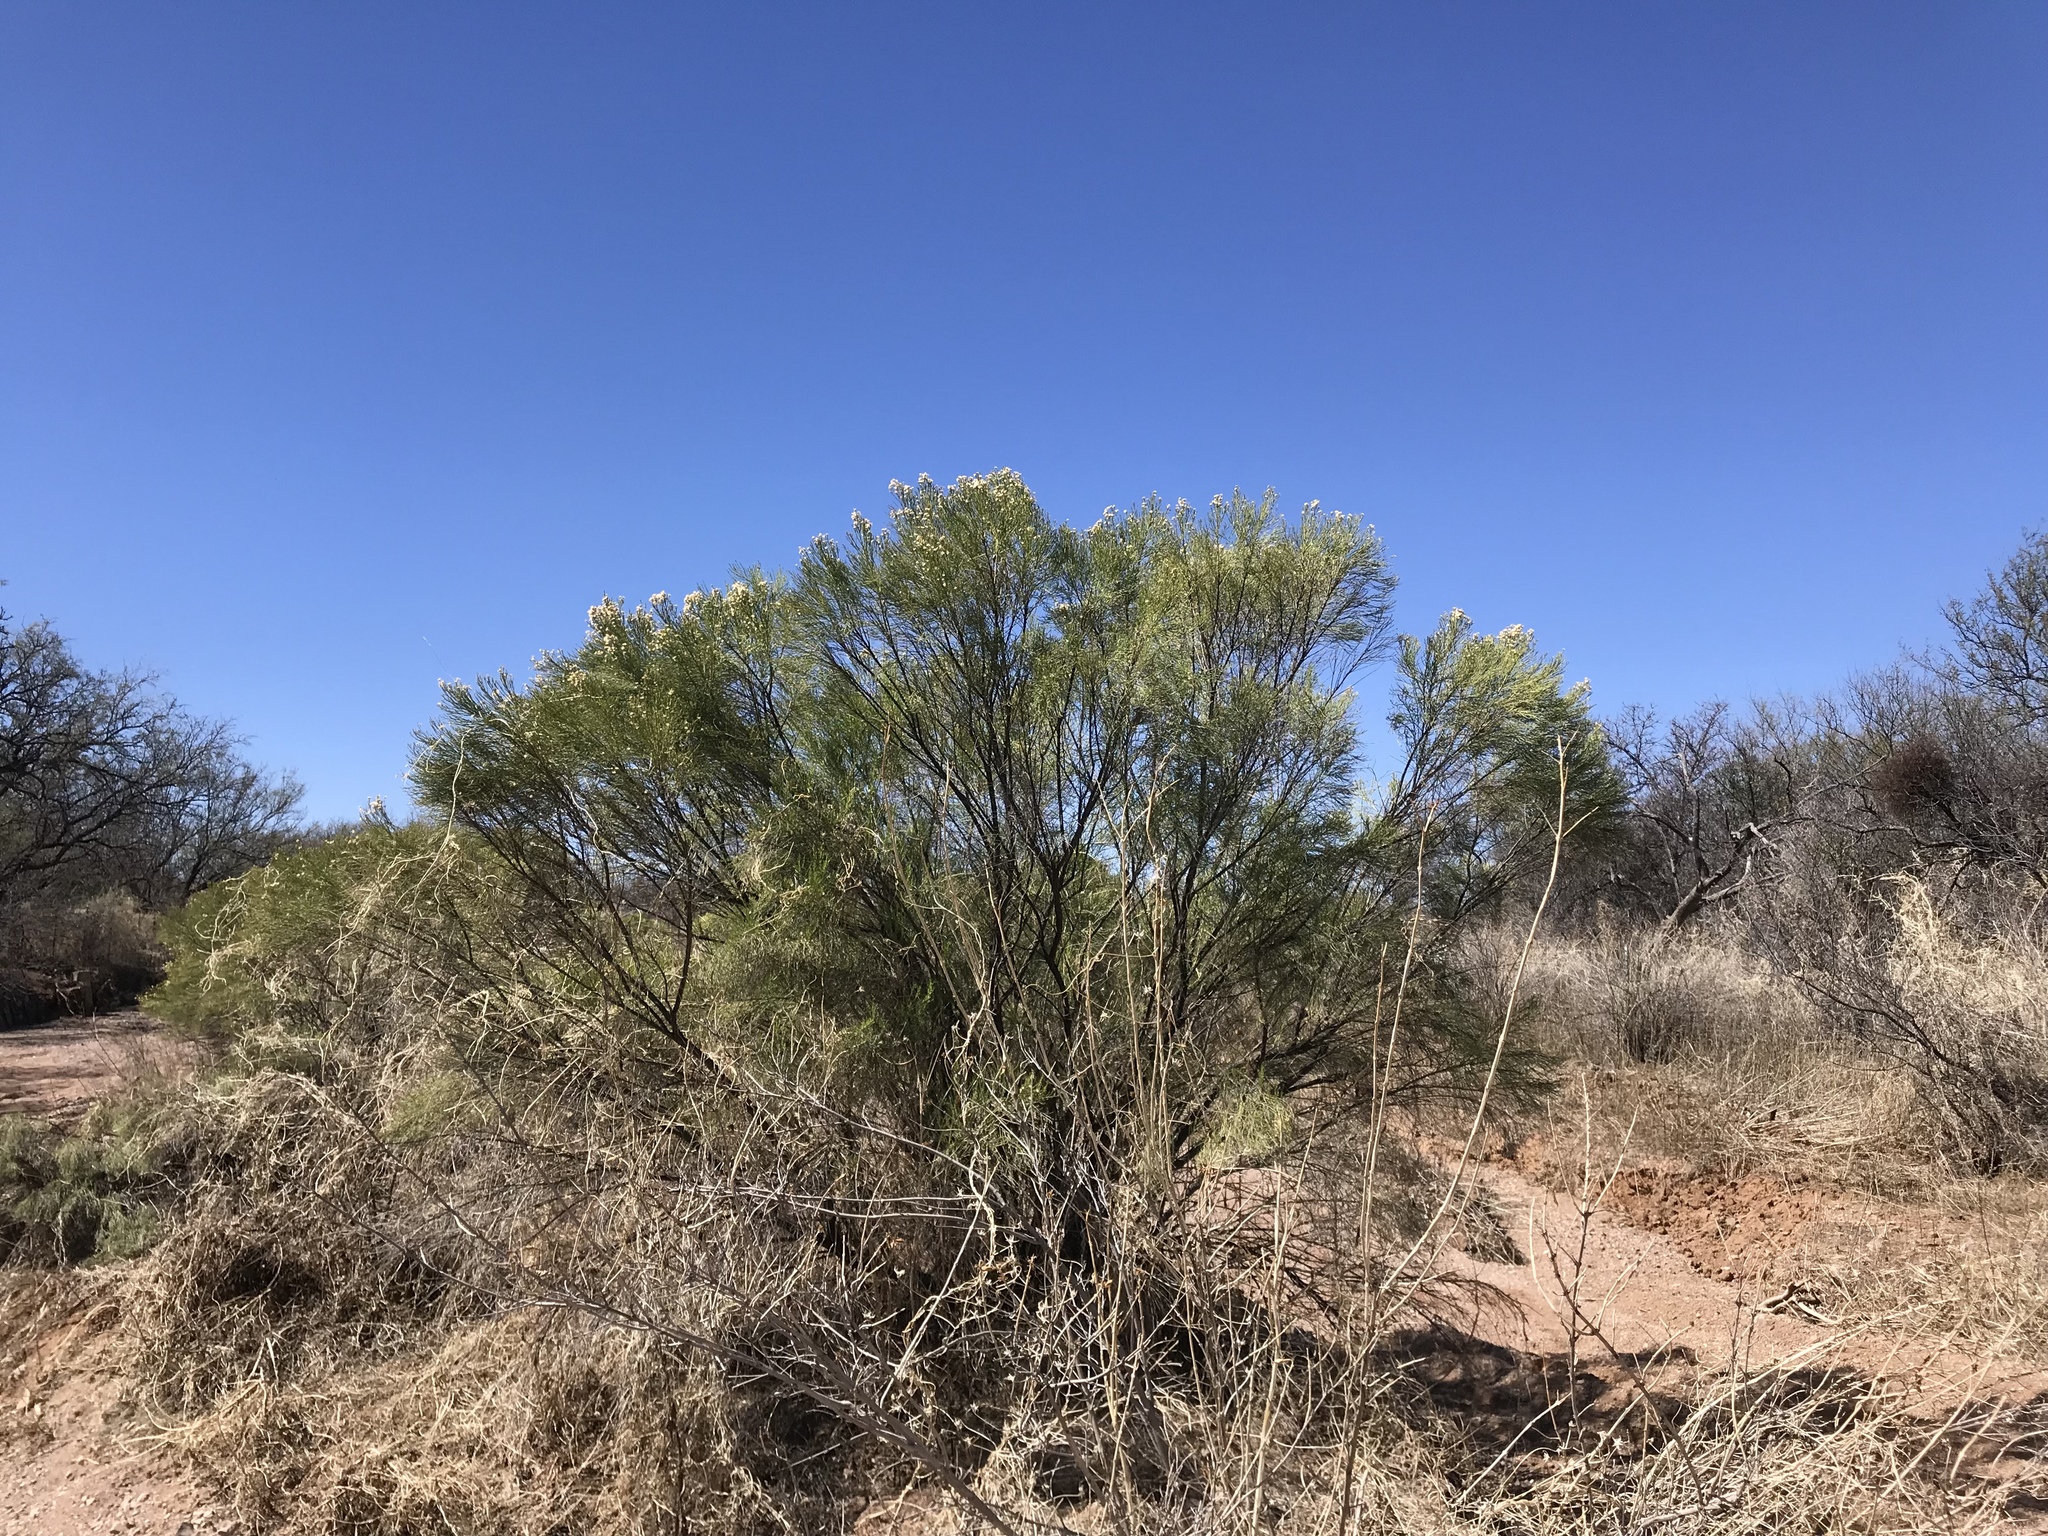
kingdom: Plantae
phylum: Tracheophyta
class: Magnoliopsida
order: Asterales
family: Asteraceae
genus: Baccharis
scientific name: Baccharis sarothroides
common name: Desert-broom
